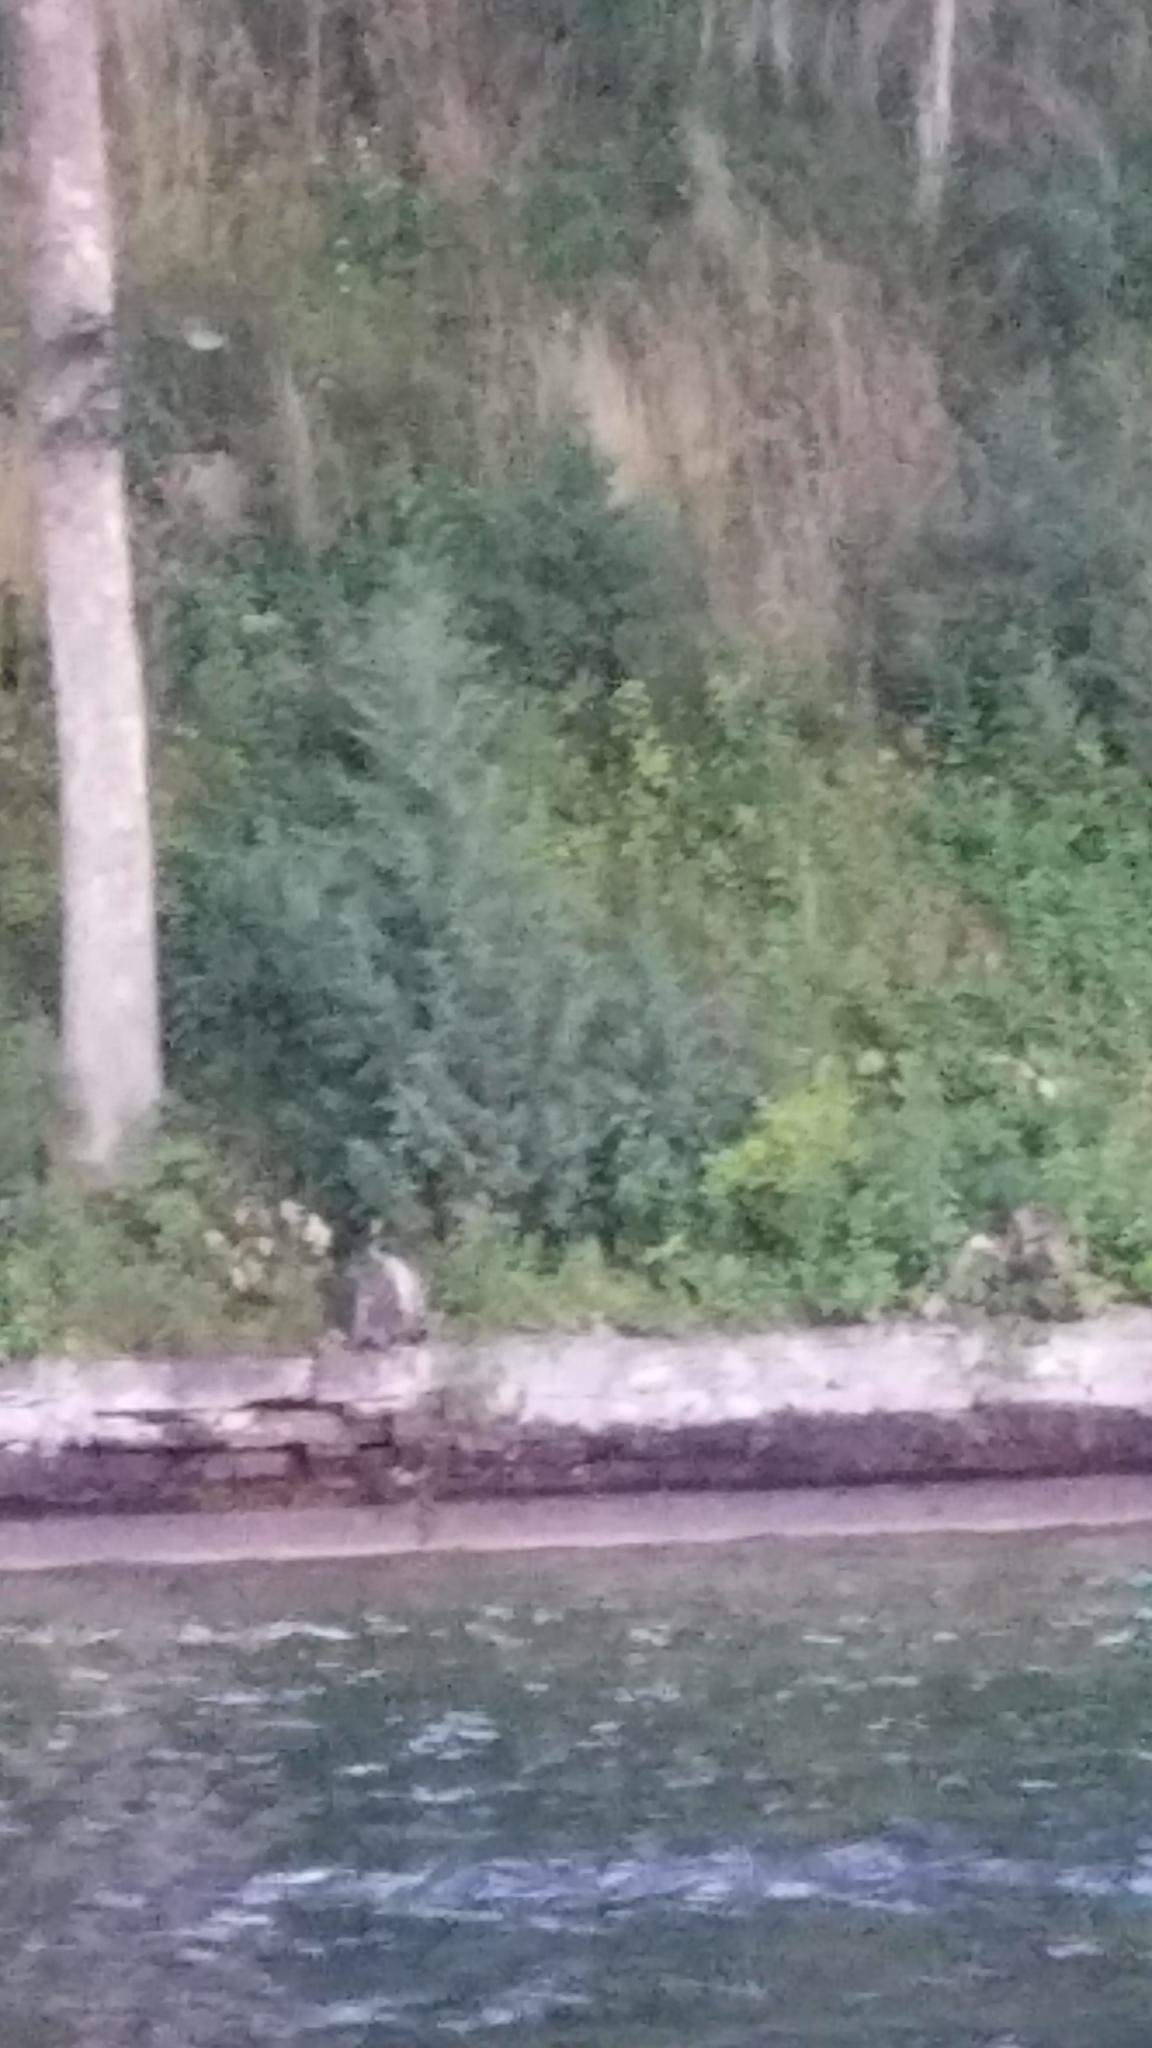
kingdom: Plantae
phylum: Tracheophyta
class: Pinopsida
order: Pinales
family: Cupressaceae
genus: Juniperus
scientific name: Juniperus virginiana
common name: Red juniper
